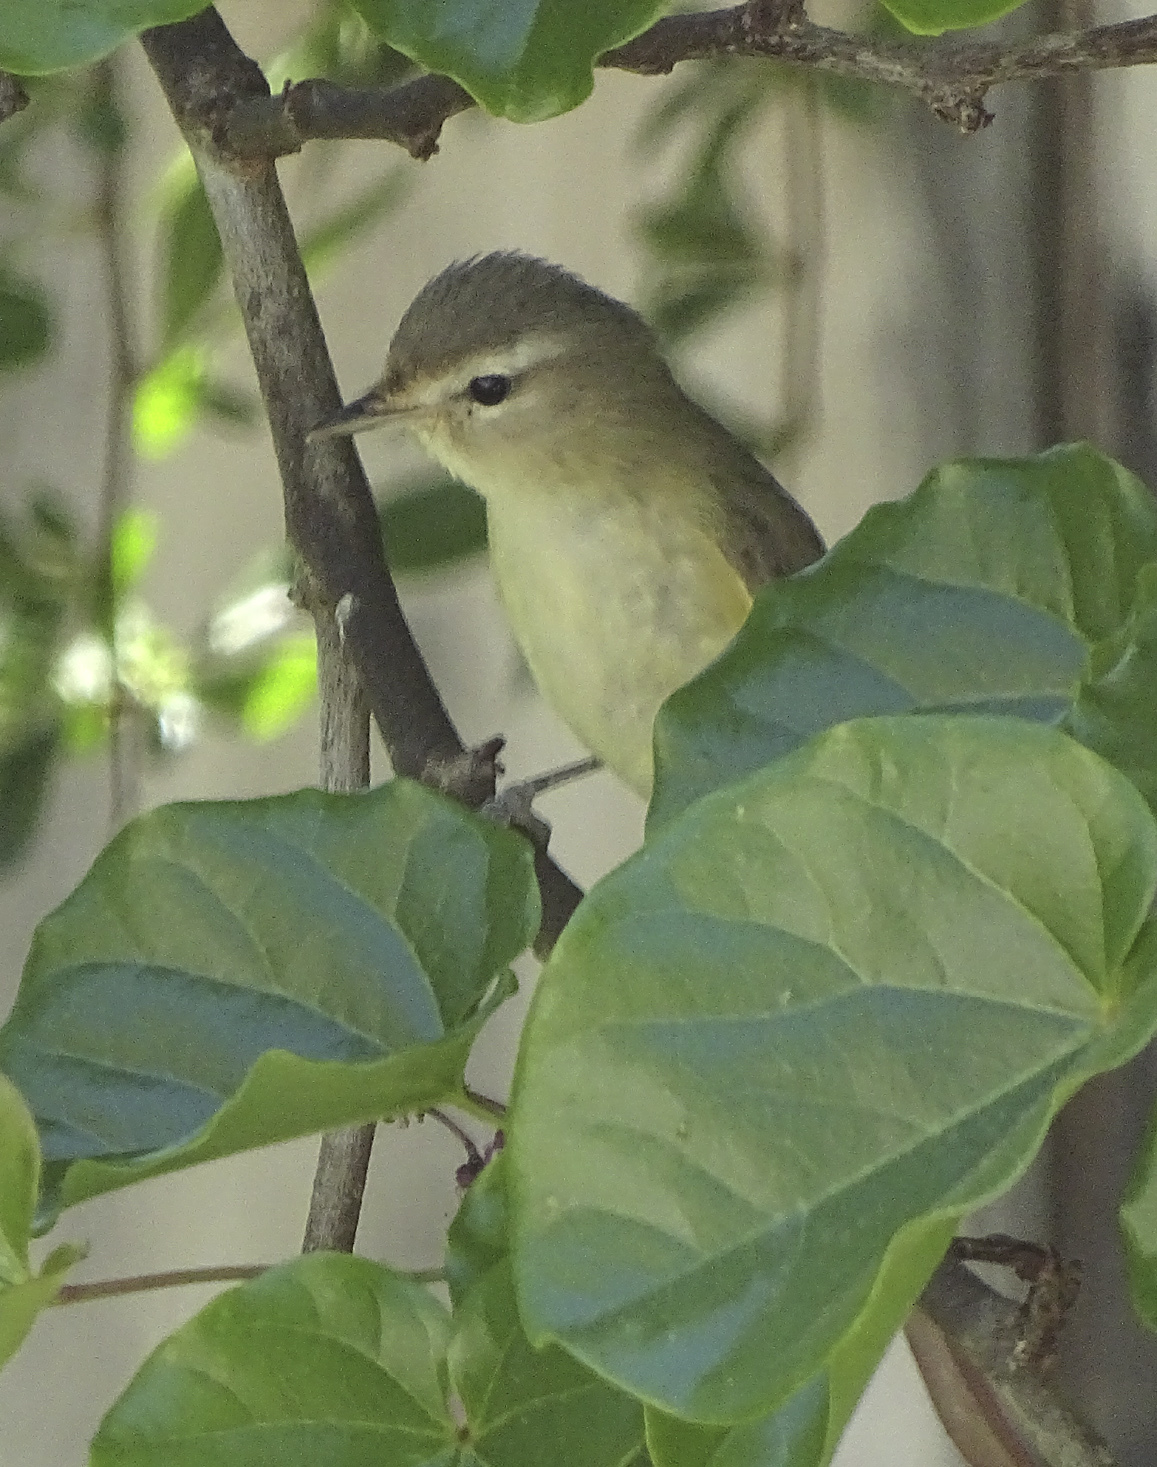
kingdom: Animalia
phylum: Chordata
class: Aves
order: Passeriformes
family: Vireonidae
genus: Vireo
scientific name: Vireo gilvus
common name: Warbling vireo
